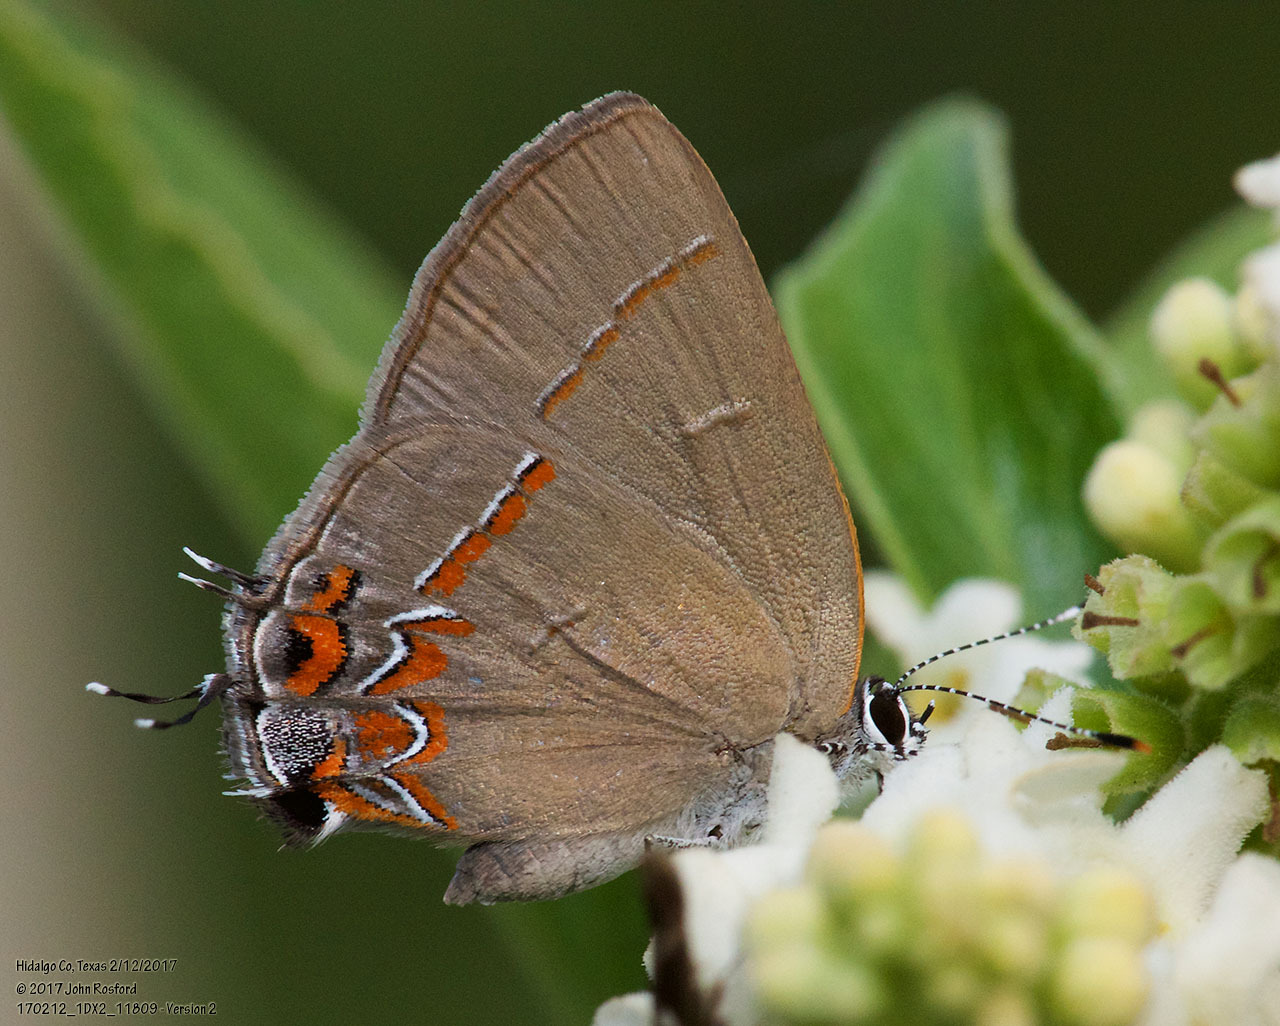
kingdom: Animalia
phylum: Arthropoda
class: Insecta
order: Lepidoptera
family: Lycaenidae
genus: Calycopis
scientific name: Calycopis isobeon
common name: Dusky-blue groundstreak
